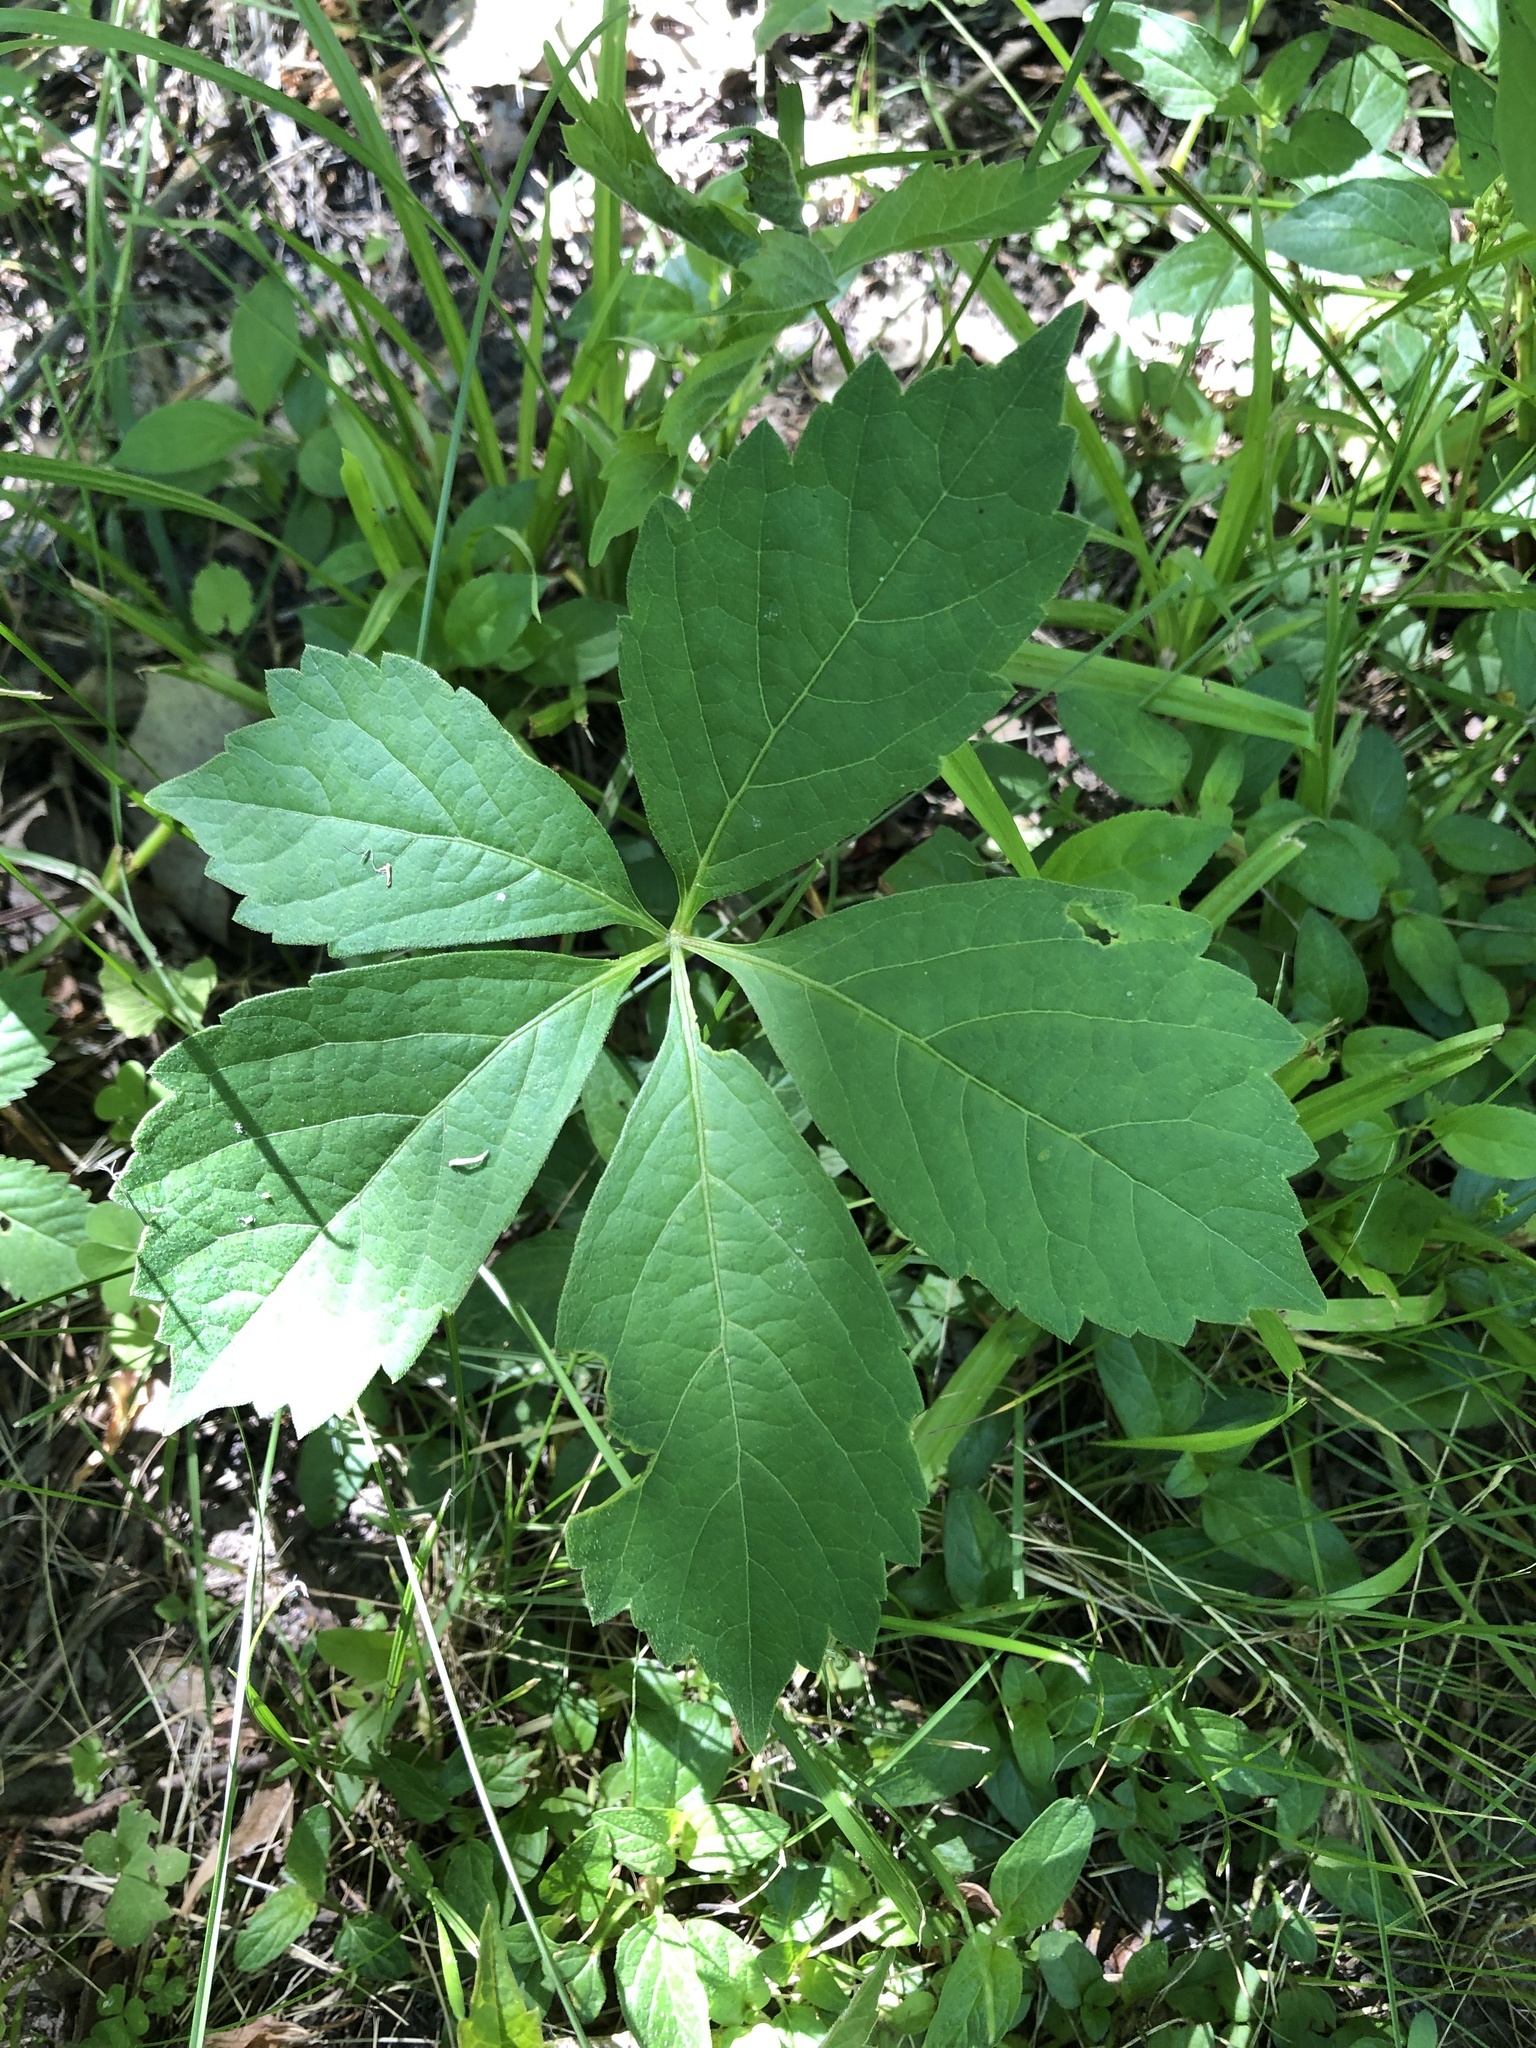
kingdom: Plantae
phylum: Tracheophyta
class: Magnoliopsida
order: Vitales
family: Vitaceae
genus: Parthenocissus
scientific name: Parthenocissus quinquefolia
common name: Virginia-creeper
